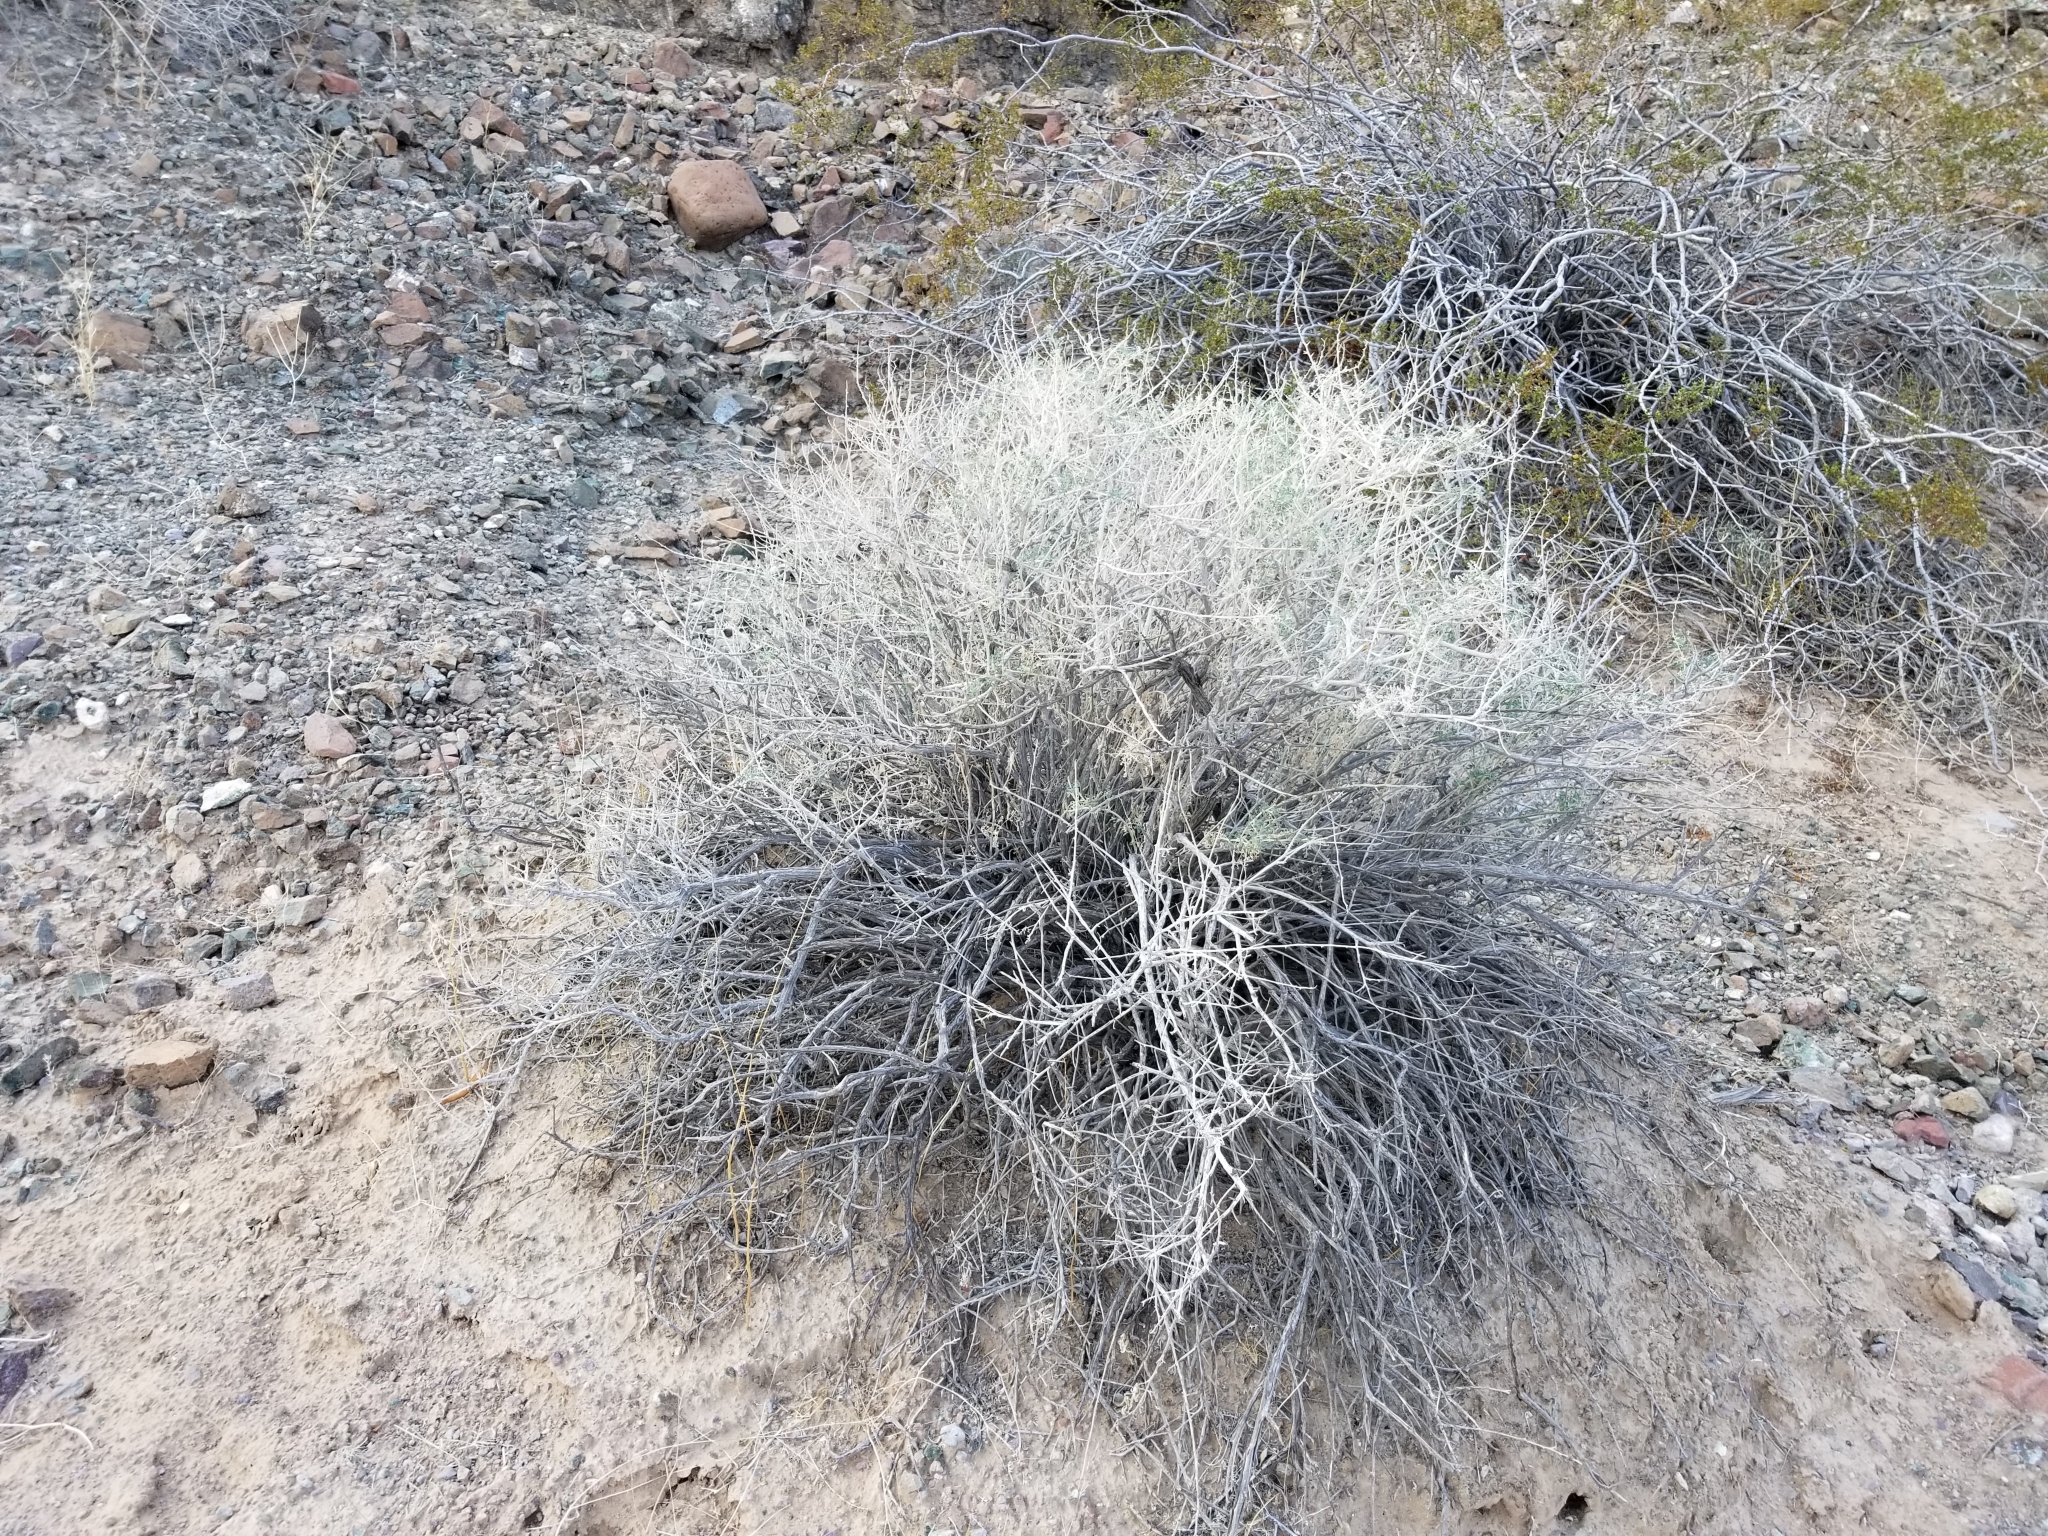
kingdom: Plantae
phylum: Tracheophyta
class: Magnoliopsida
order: Asterales
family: Asteraceae
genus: Ambrosia
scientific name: Ambrosia dumosa
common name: Bur-sage
